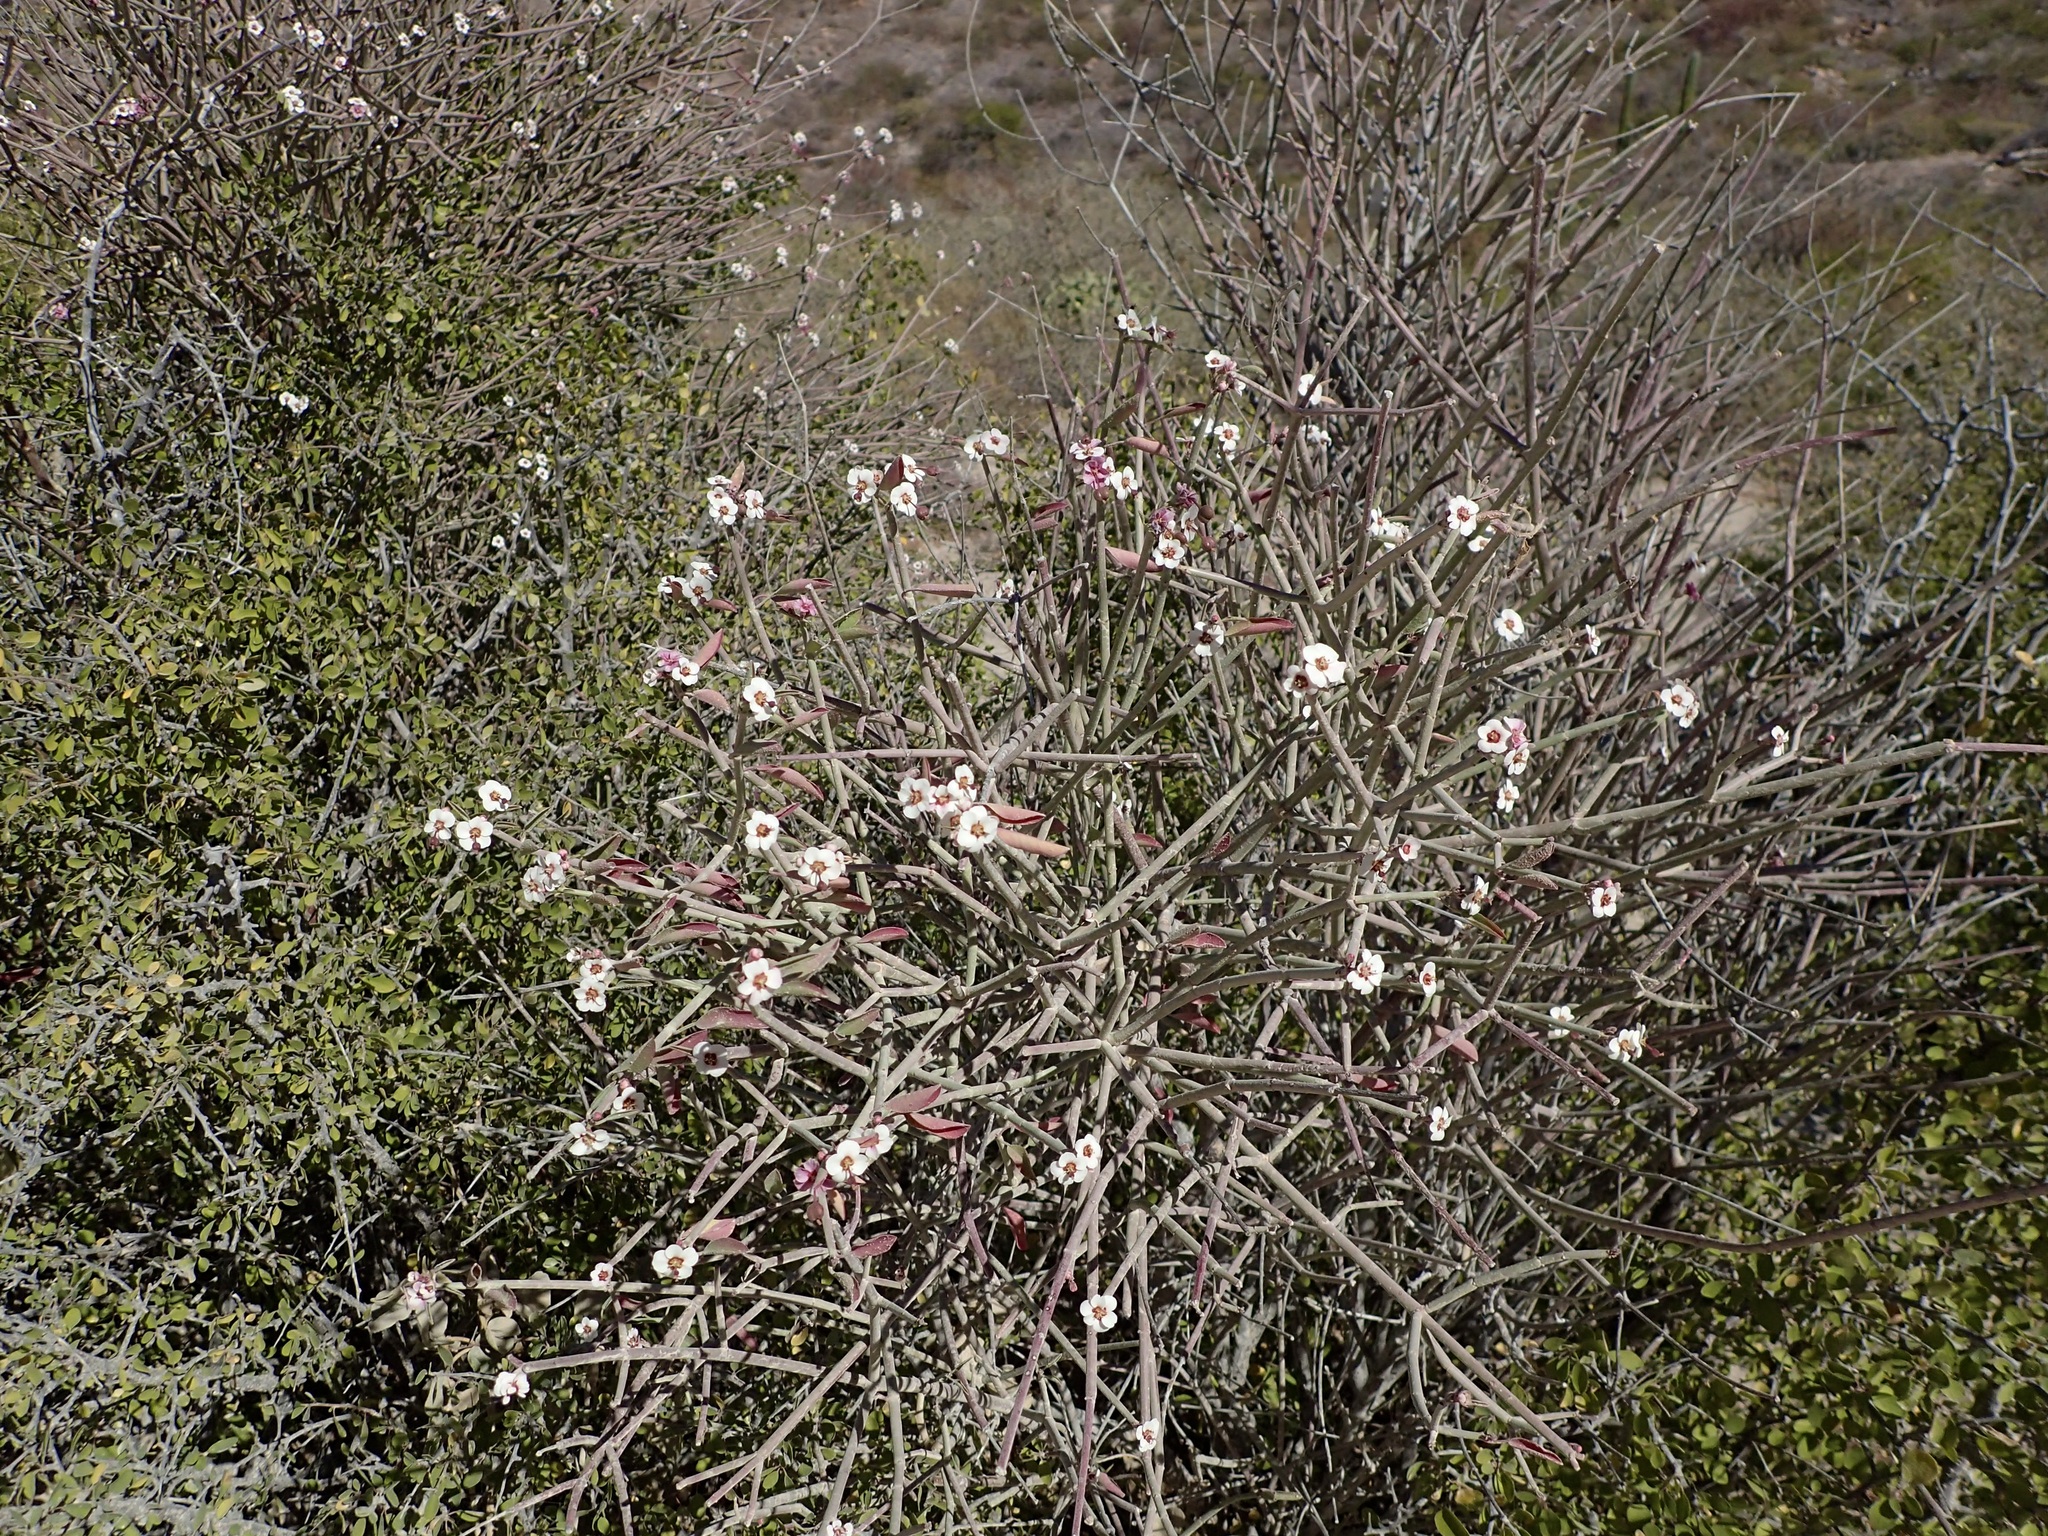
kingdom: Plantae
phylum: Tracheophyta
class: Magnoliopsida
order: Malpighiales
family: Euphorbiaceae
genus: Euphorbia
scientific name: Euphorbia xanti
